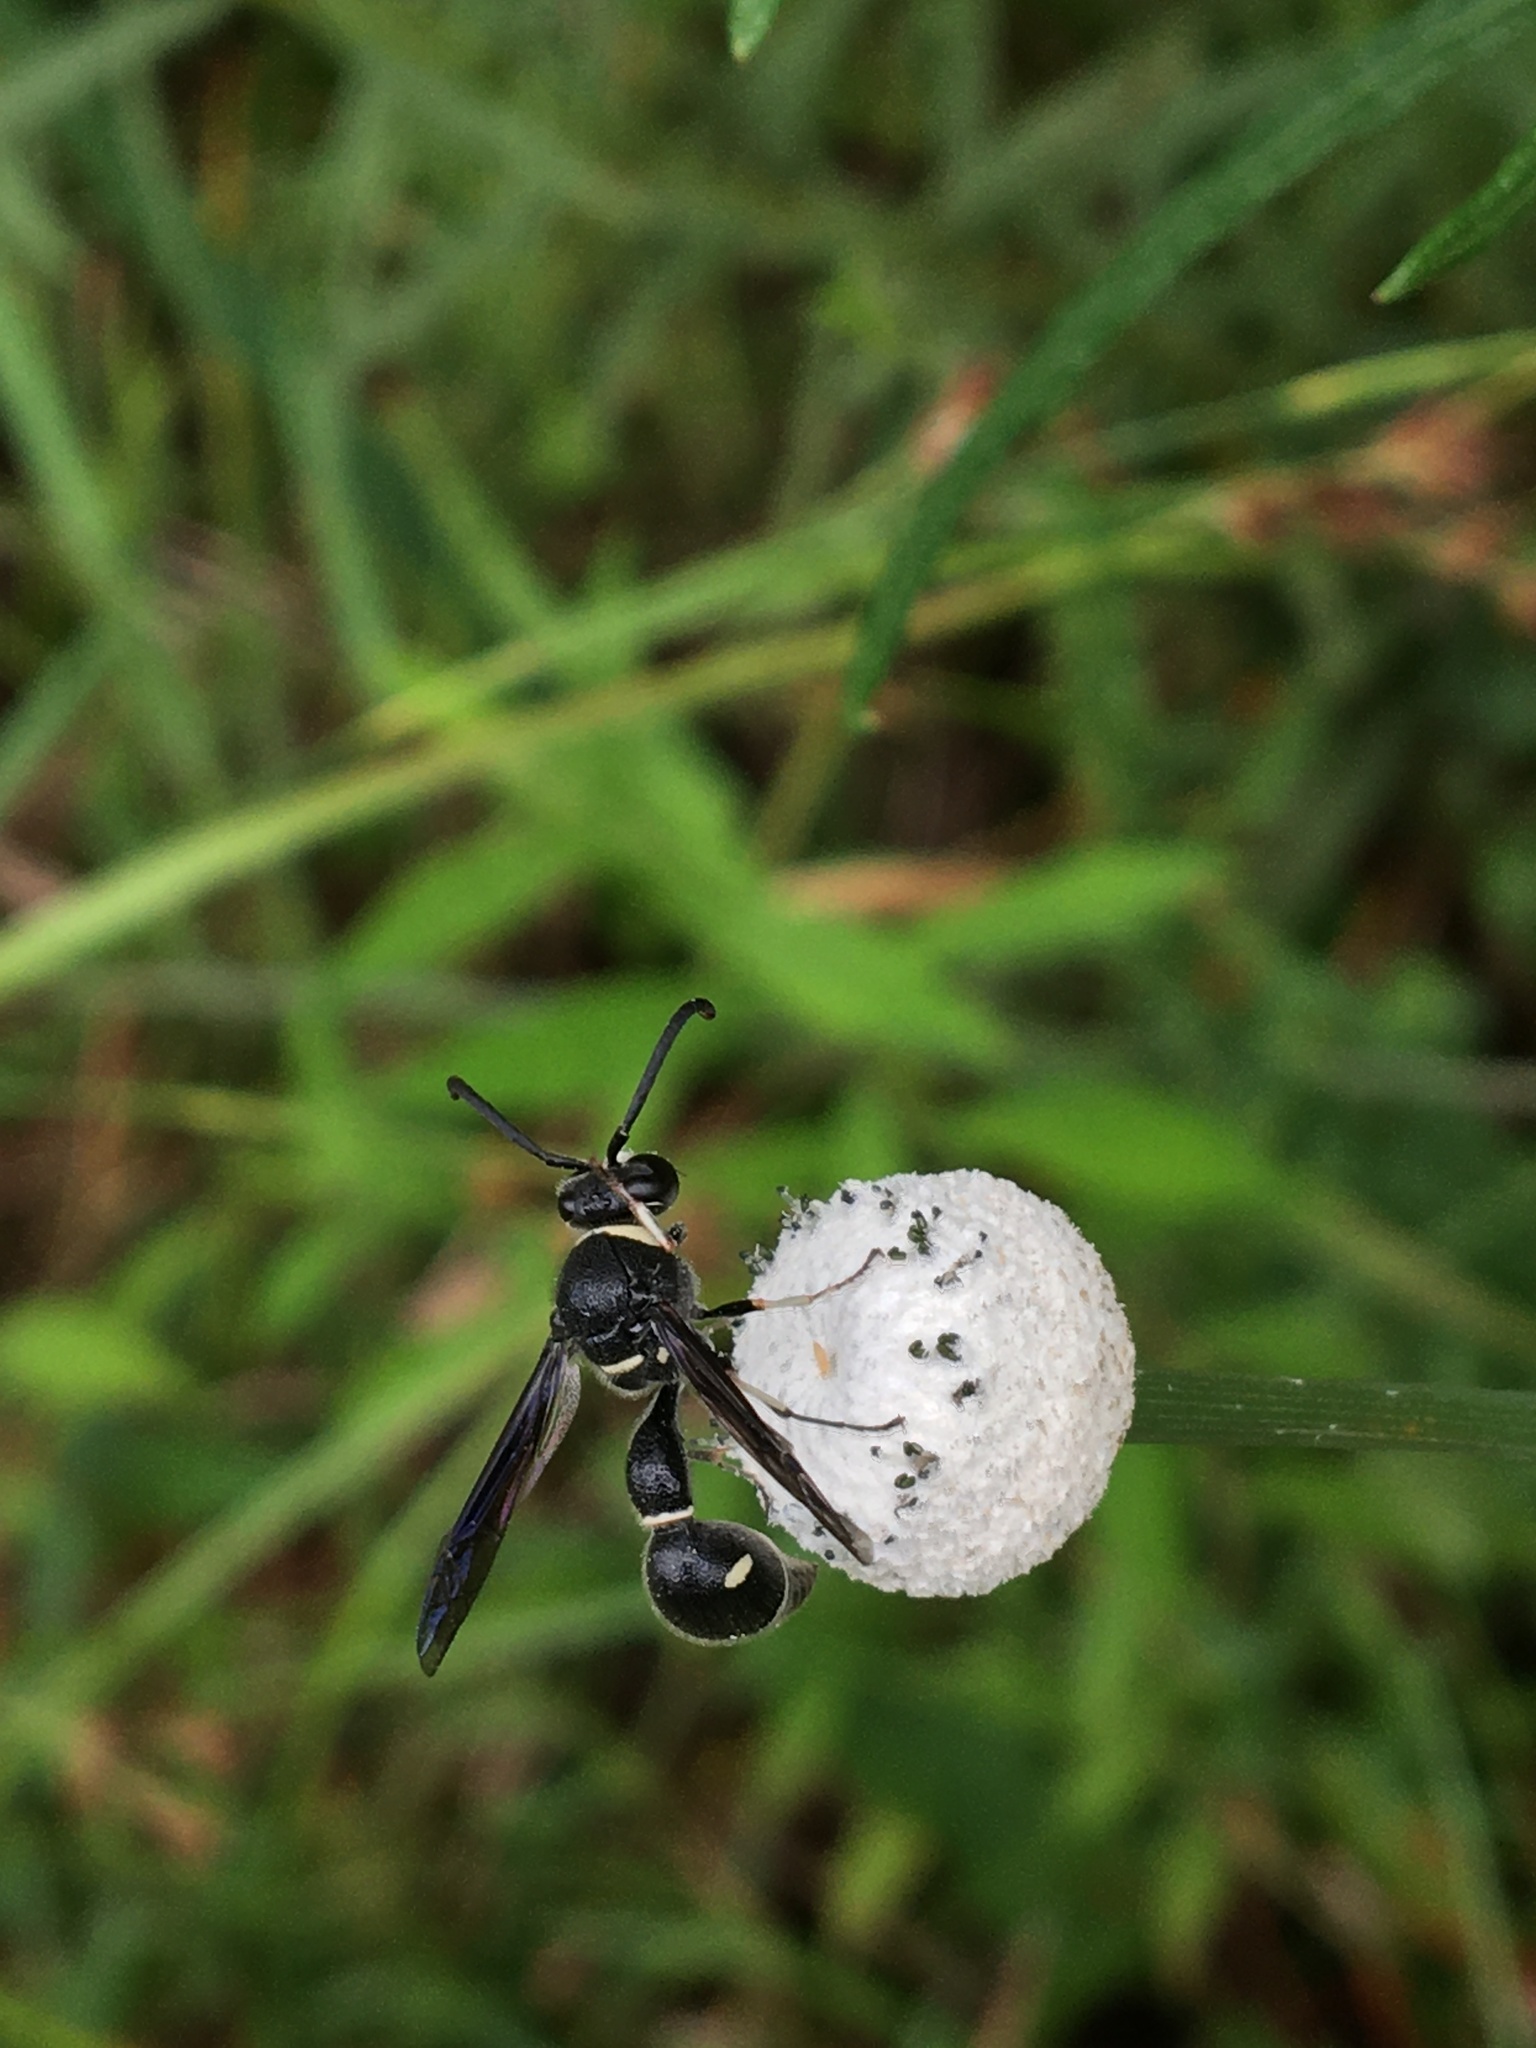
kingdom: Animalia
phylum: Arthropoda
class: Insecta
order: Hymenoptera
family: Vespidae
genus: Eumenes
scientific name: Eumenes fraternus
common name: Fraternal potter wasp
